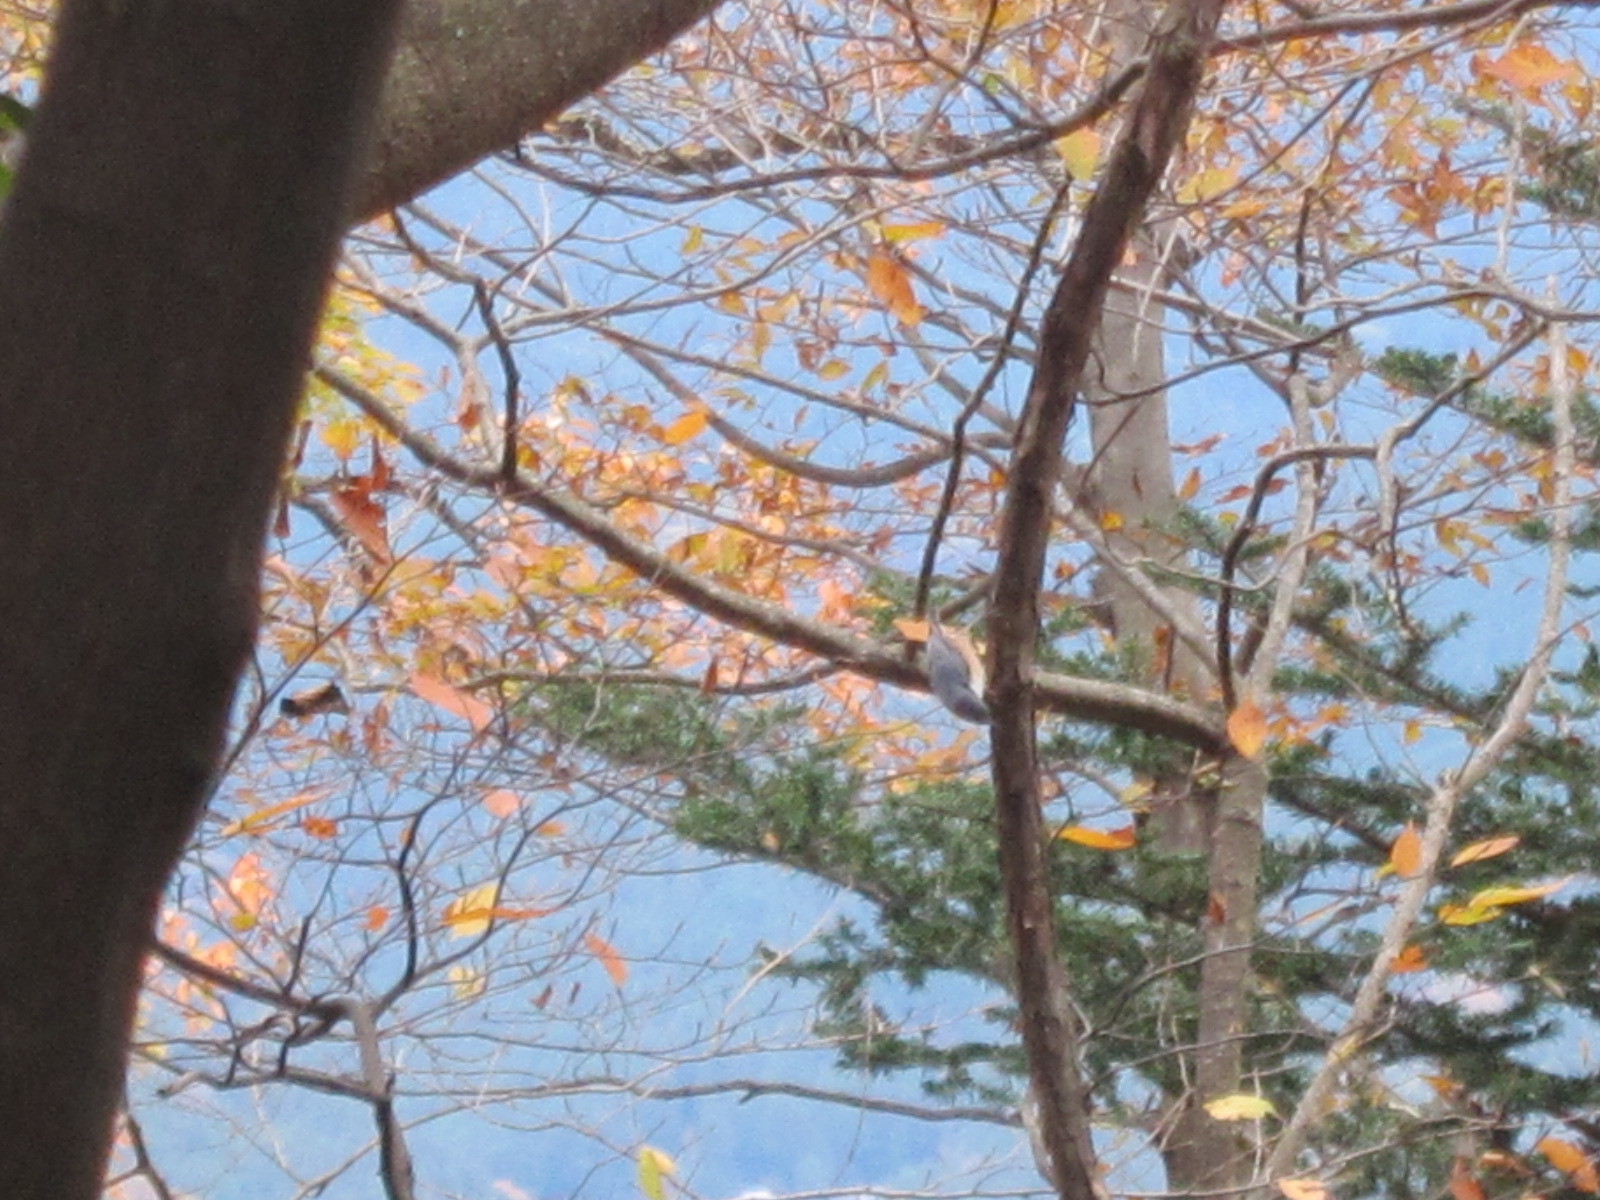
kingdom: Animalia
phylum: Chordata
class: Aves
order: Passeriformes
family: Sittidae
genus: Sitta
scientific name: Sitta europaea
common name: Eurasian nuthatch
